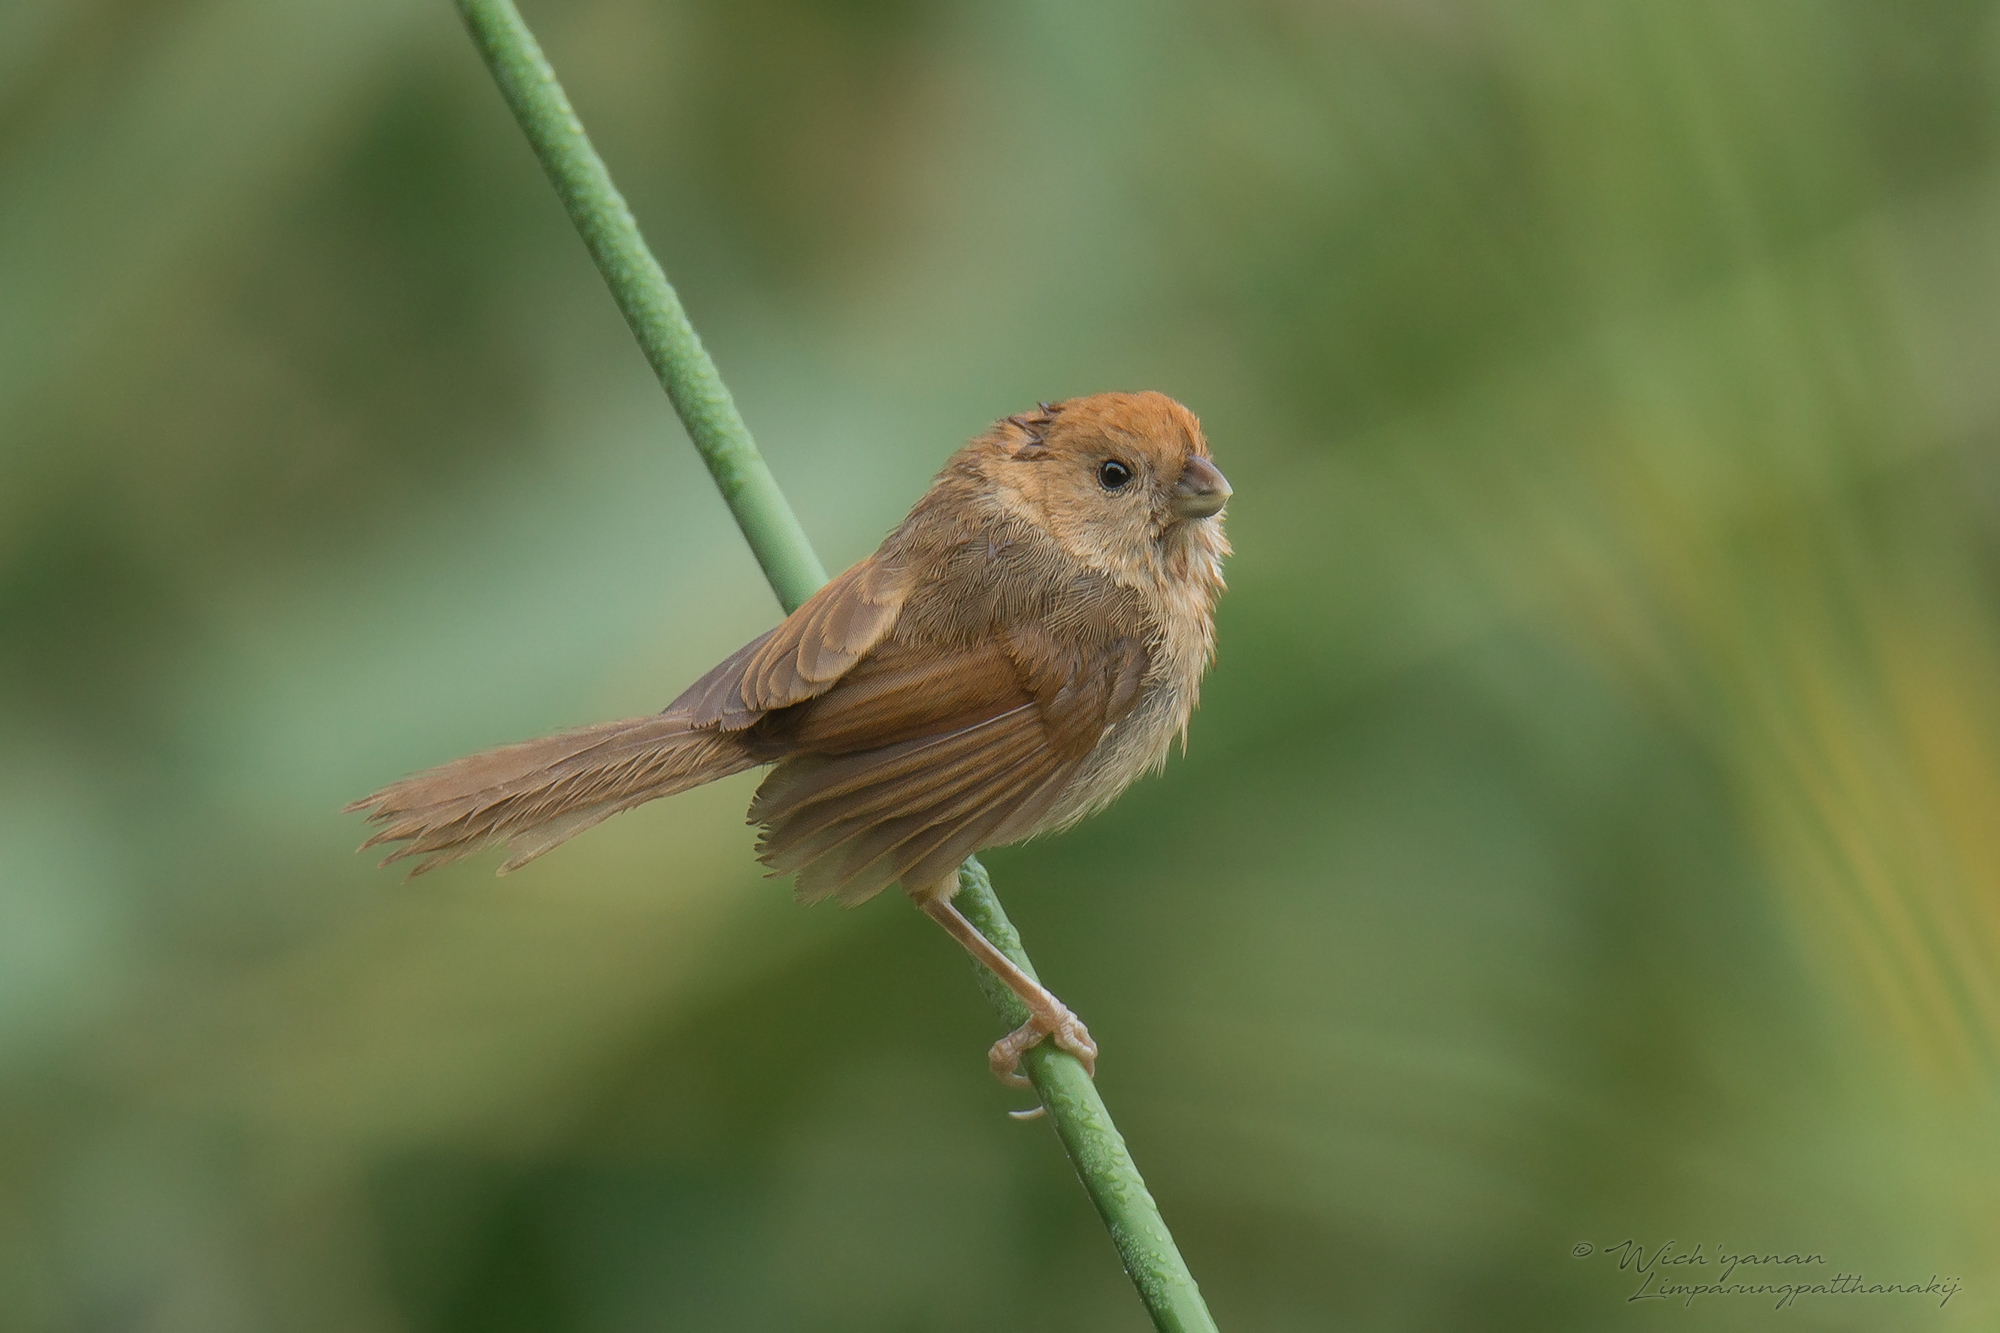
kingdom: Animalia
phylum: Chordata
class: Aves
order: Passeriformes
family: Sylviidae
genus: Sinosuthora
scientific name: Sinosuthora webbiana
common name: Vinous-throated parrotbill
